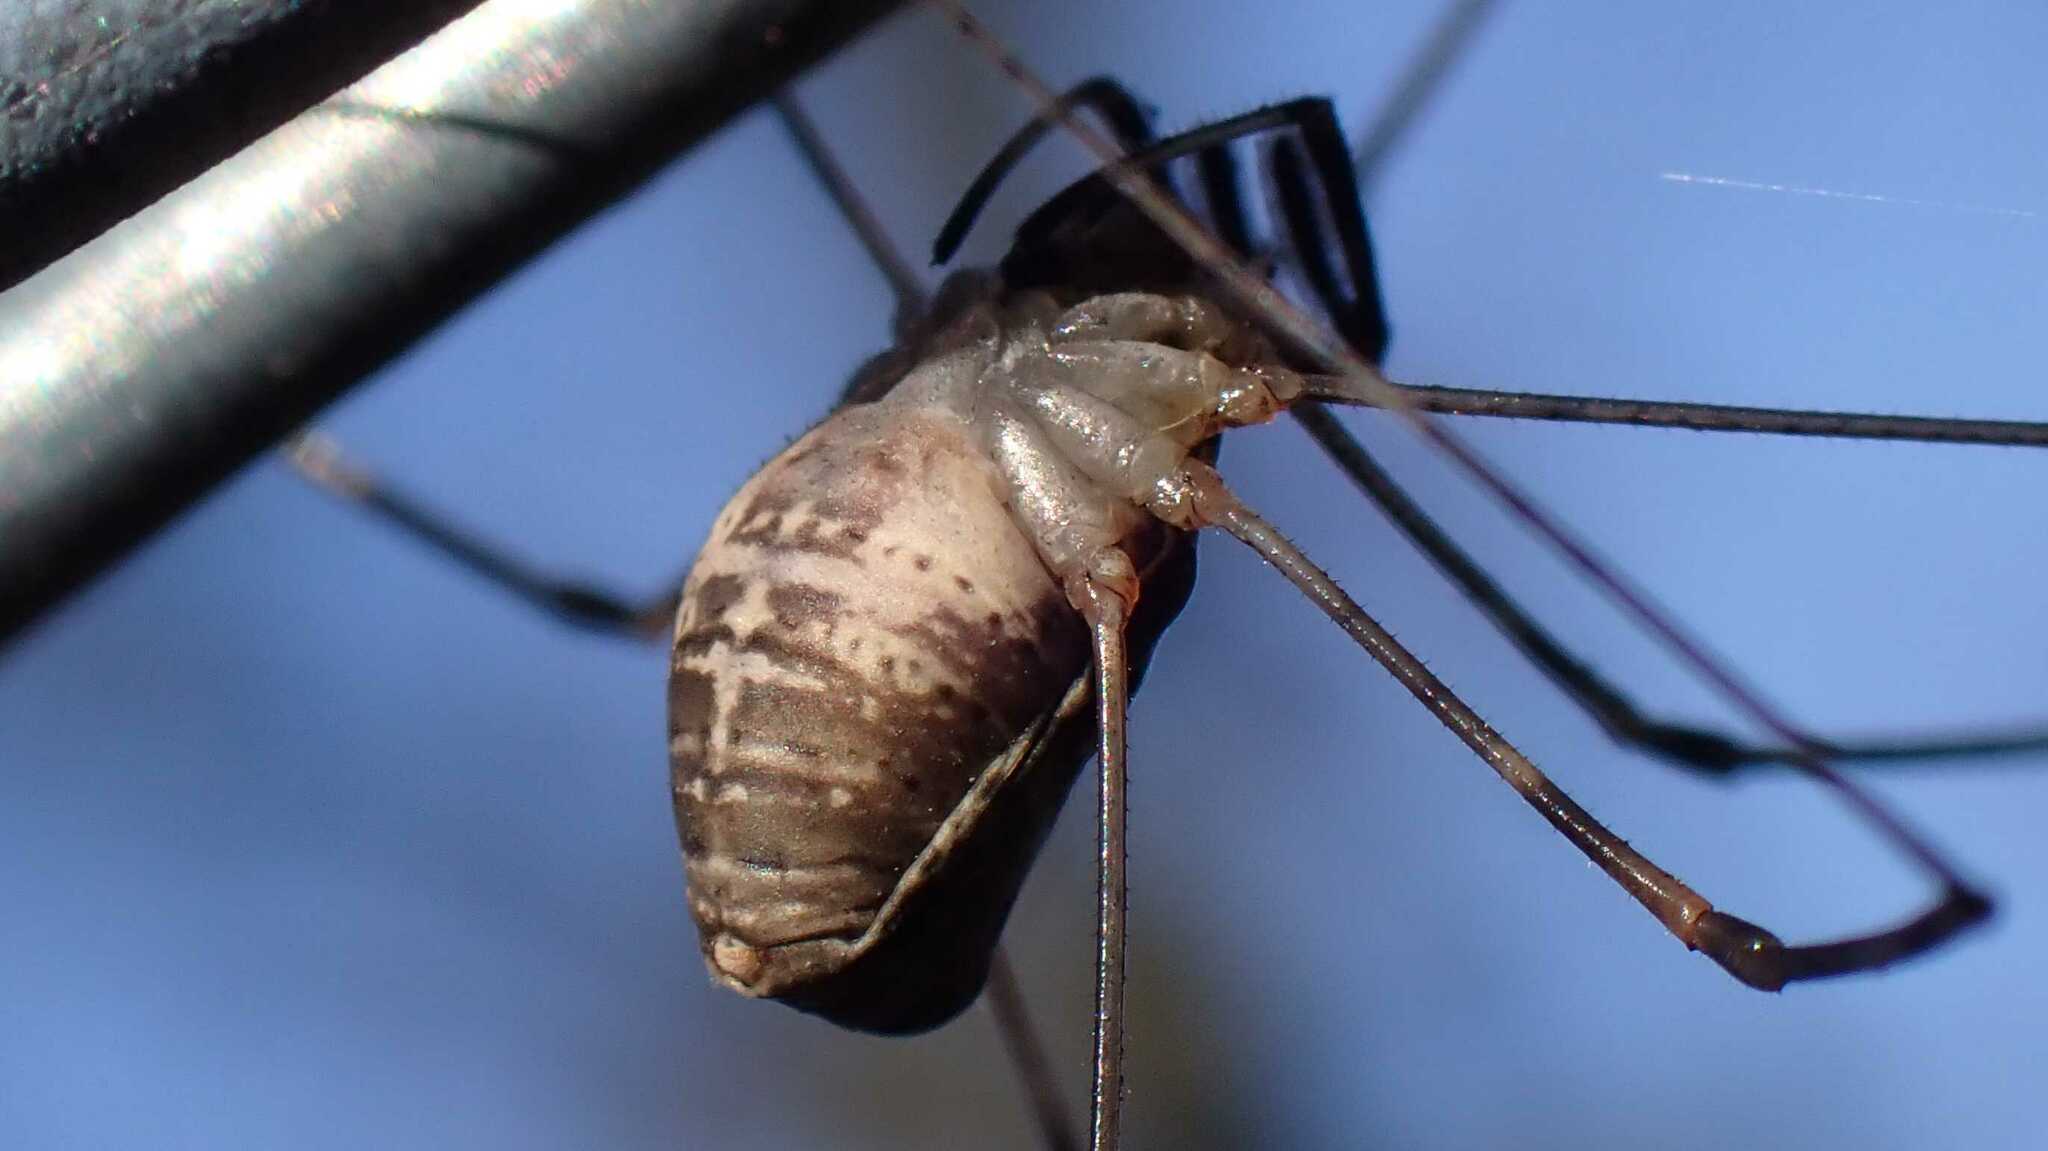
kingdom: Animalia
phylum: Arthropoda
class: Arachnida
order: Opiliones
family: Phalangiidae
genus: Dicranopalpus
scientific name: Dicranopalpus ramosus
